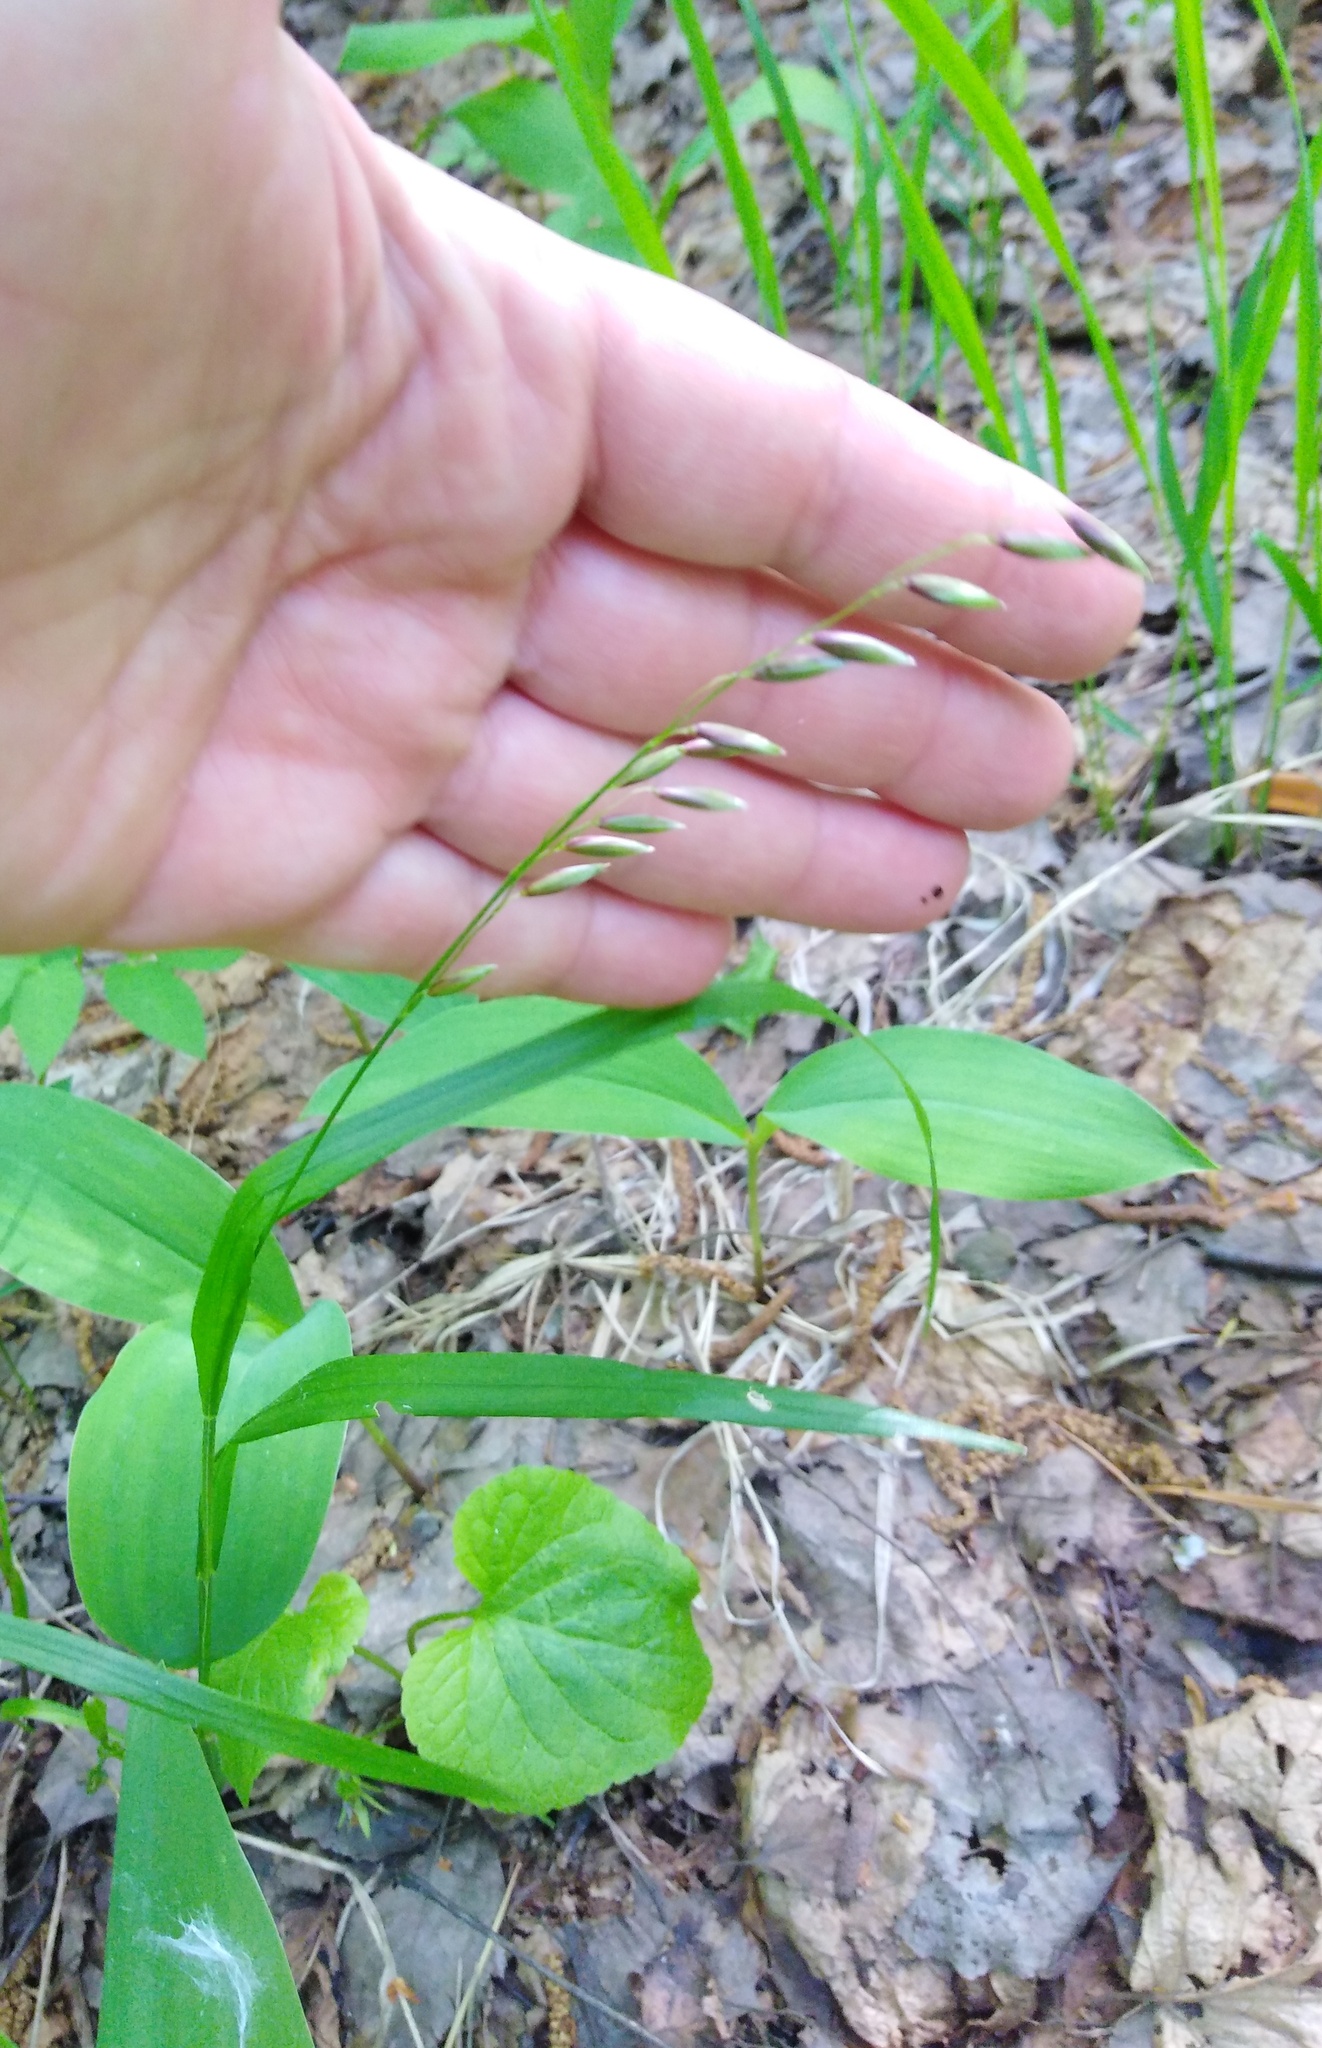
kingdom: Plantae
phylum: Tracheophyta
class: Liliopsida
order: Poales
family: Poaceae
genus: Melica
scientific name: Melica nutans
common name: Mountain melick
